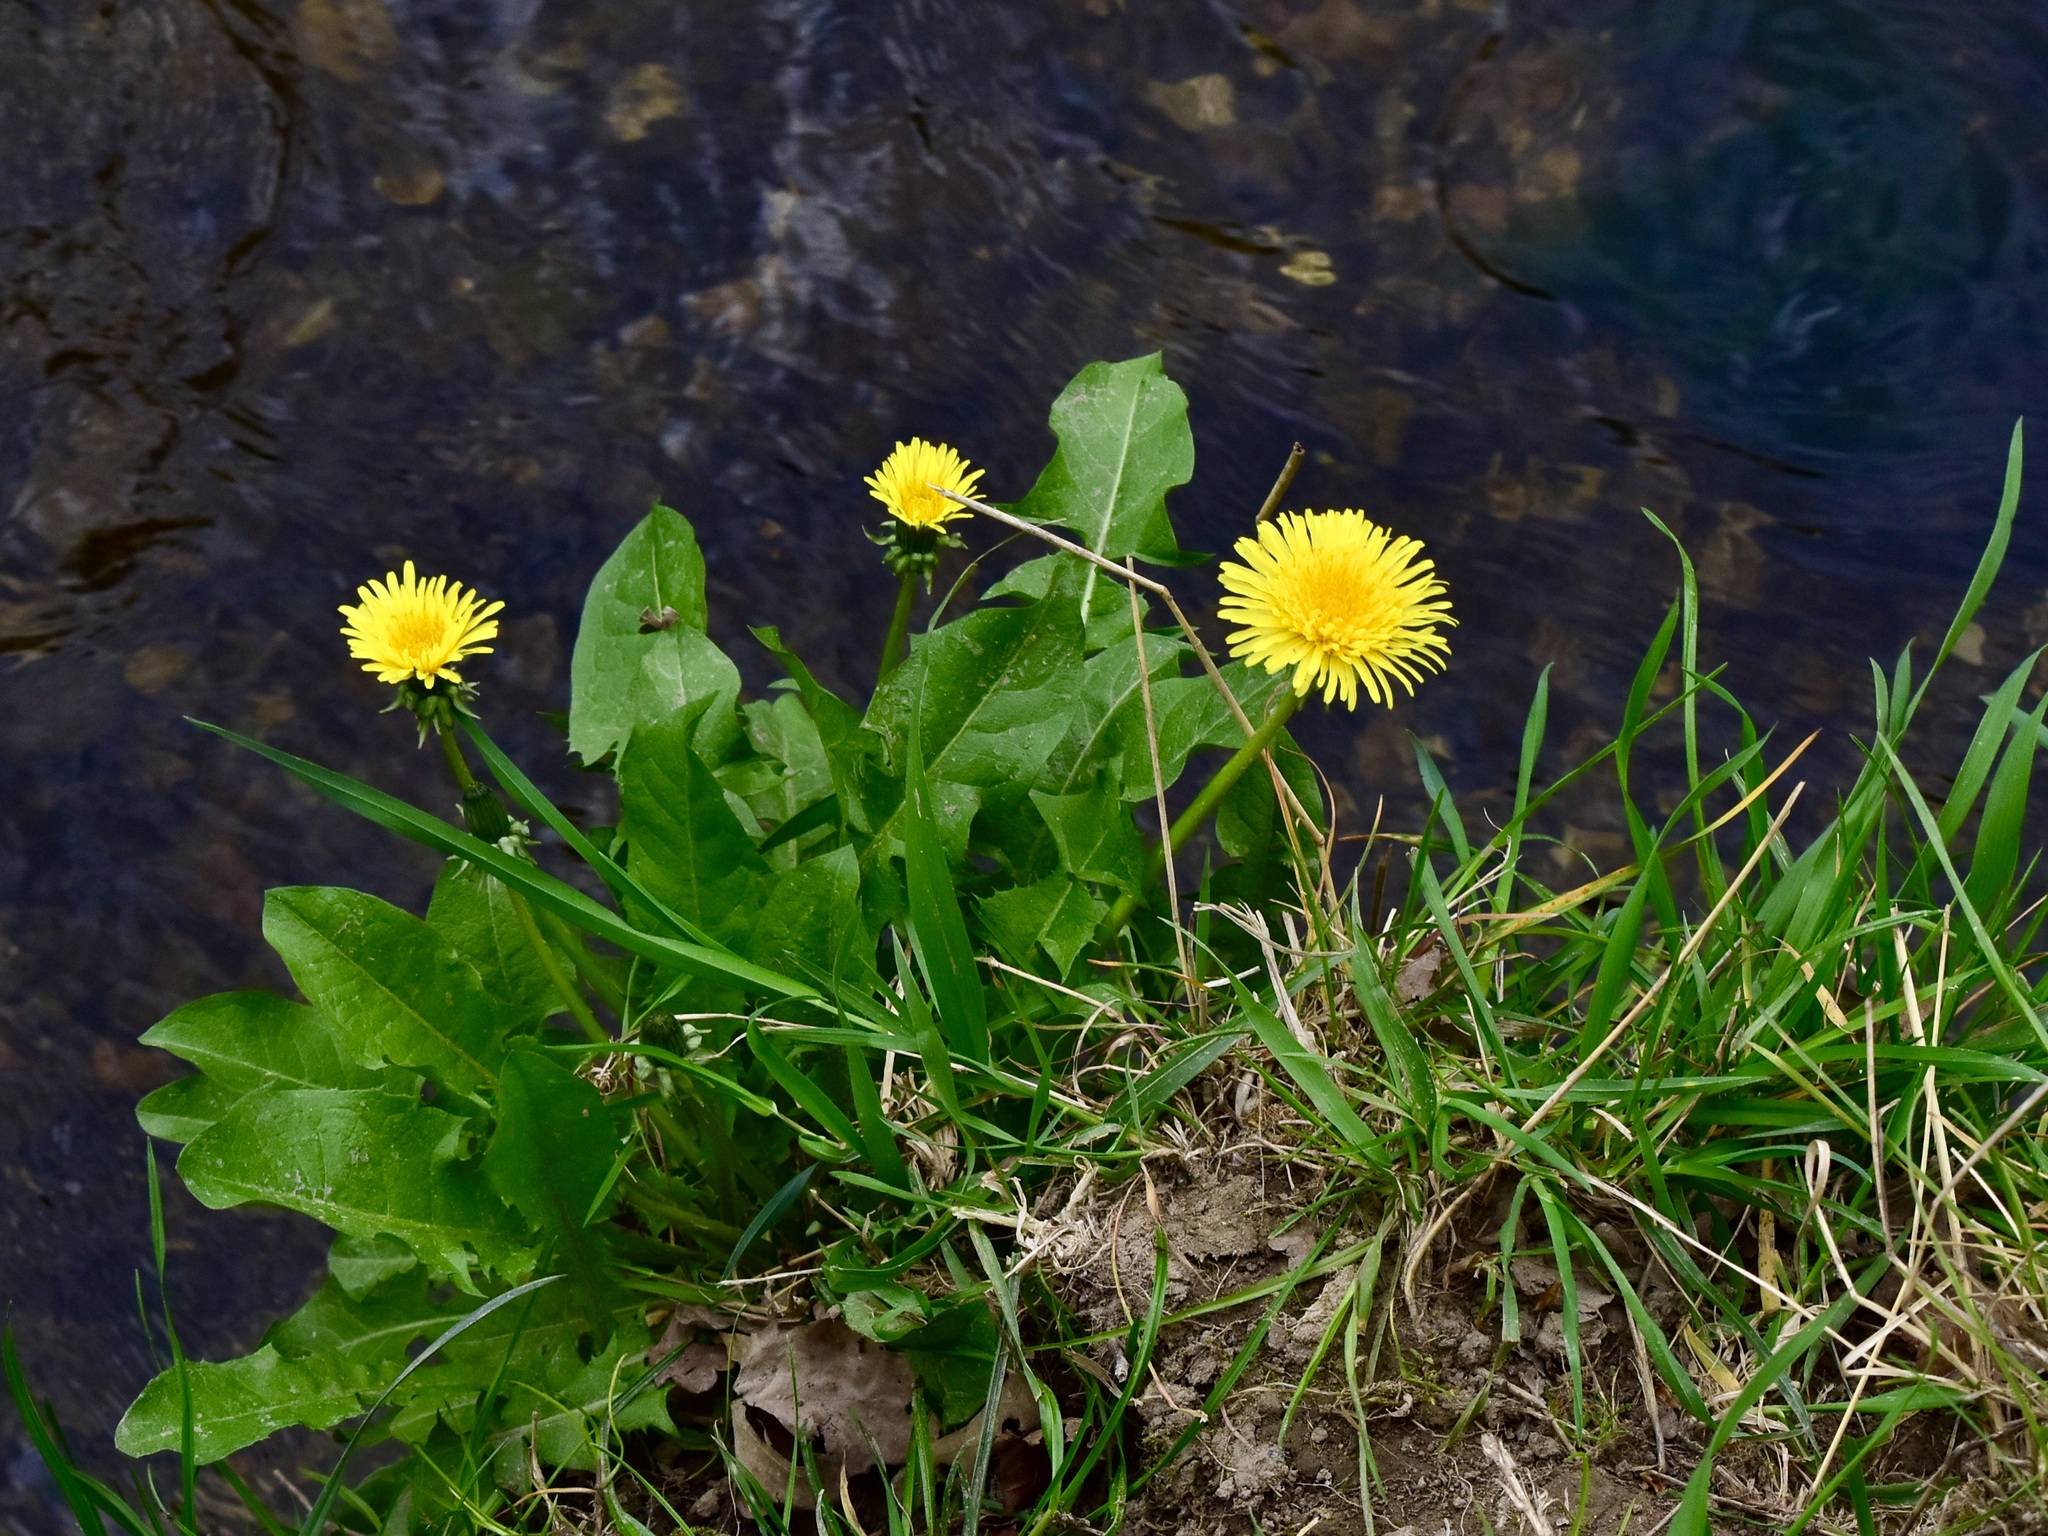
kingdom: Plantae
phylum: Tracheophyta
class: Magnoliopsida
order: Asterales
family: Asteraceae
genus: Taraxacum
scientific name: Taraxacum officinale
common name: Common dandelion
